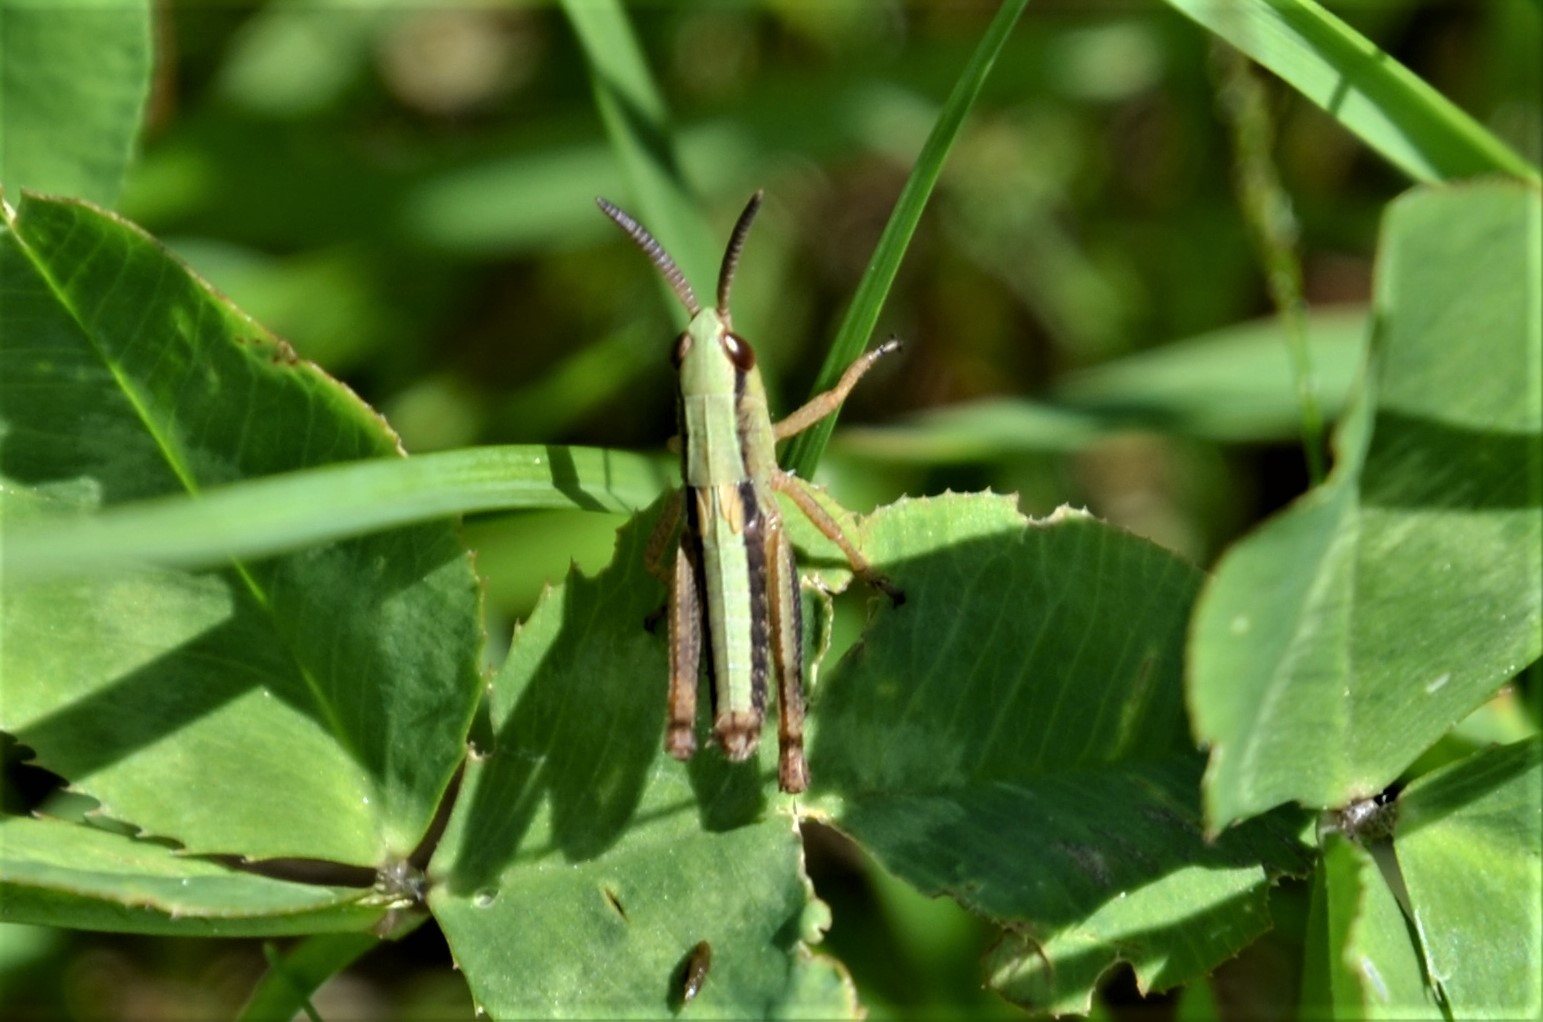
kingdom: Animalia
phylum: Arthropoda
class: Insecta
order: Orthoptera
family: Acrididae
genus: Pseudochorthippus
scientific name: Pseudochorthippus parallelus
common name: Meadow grasshopper
